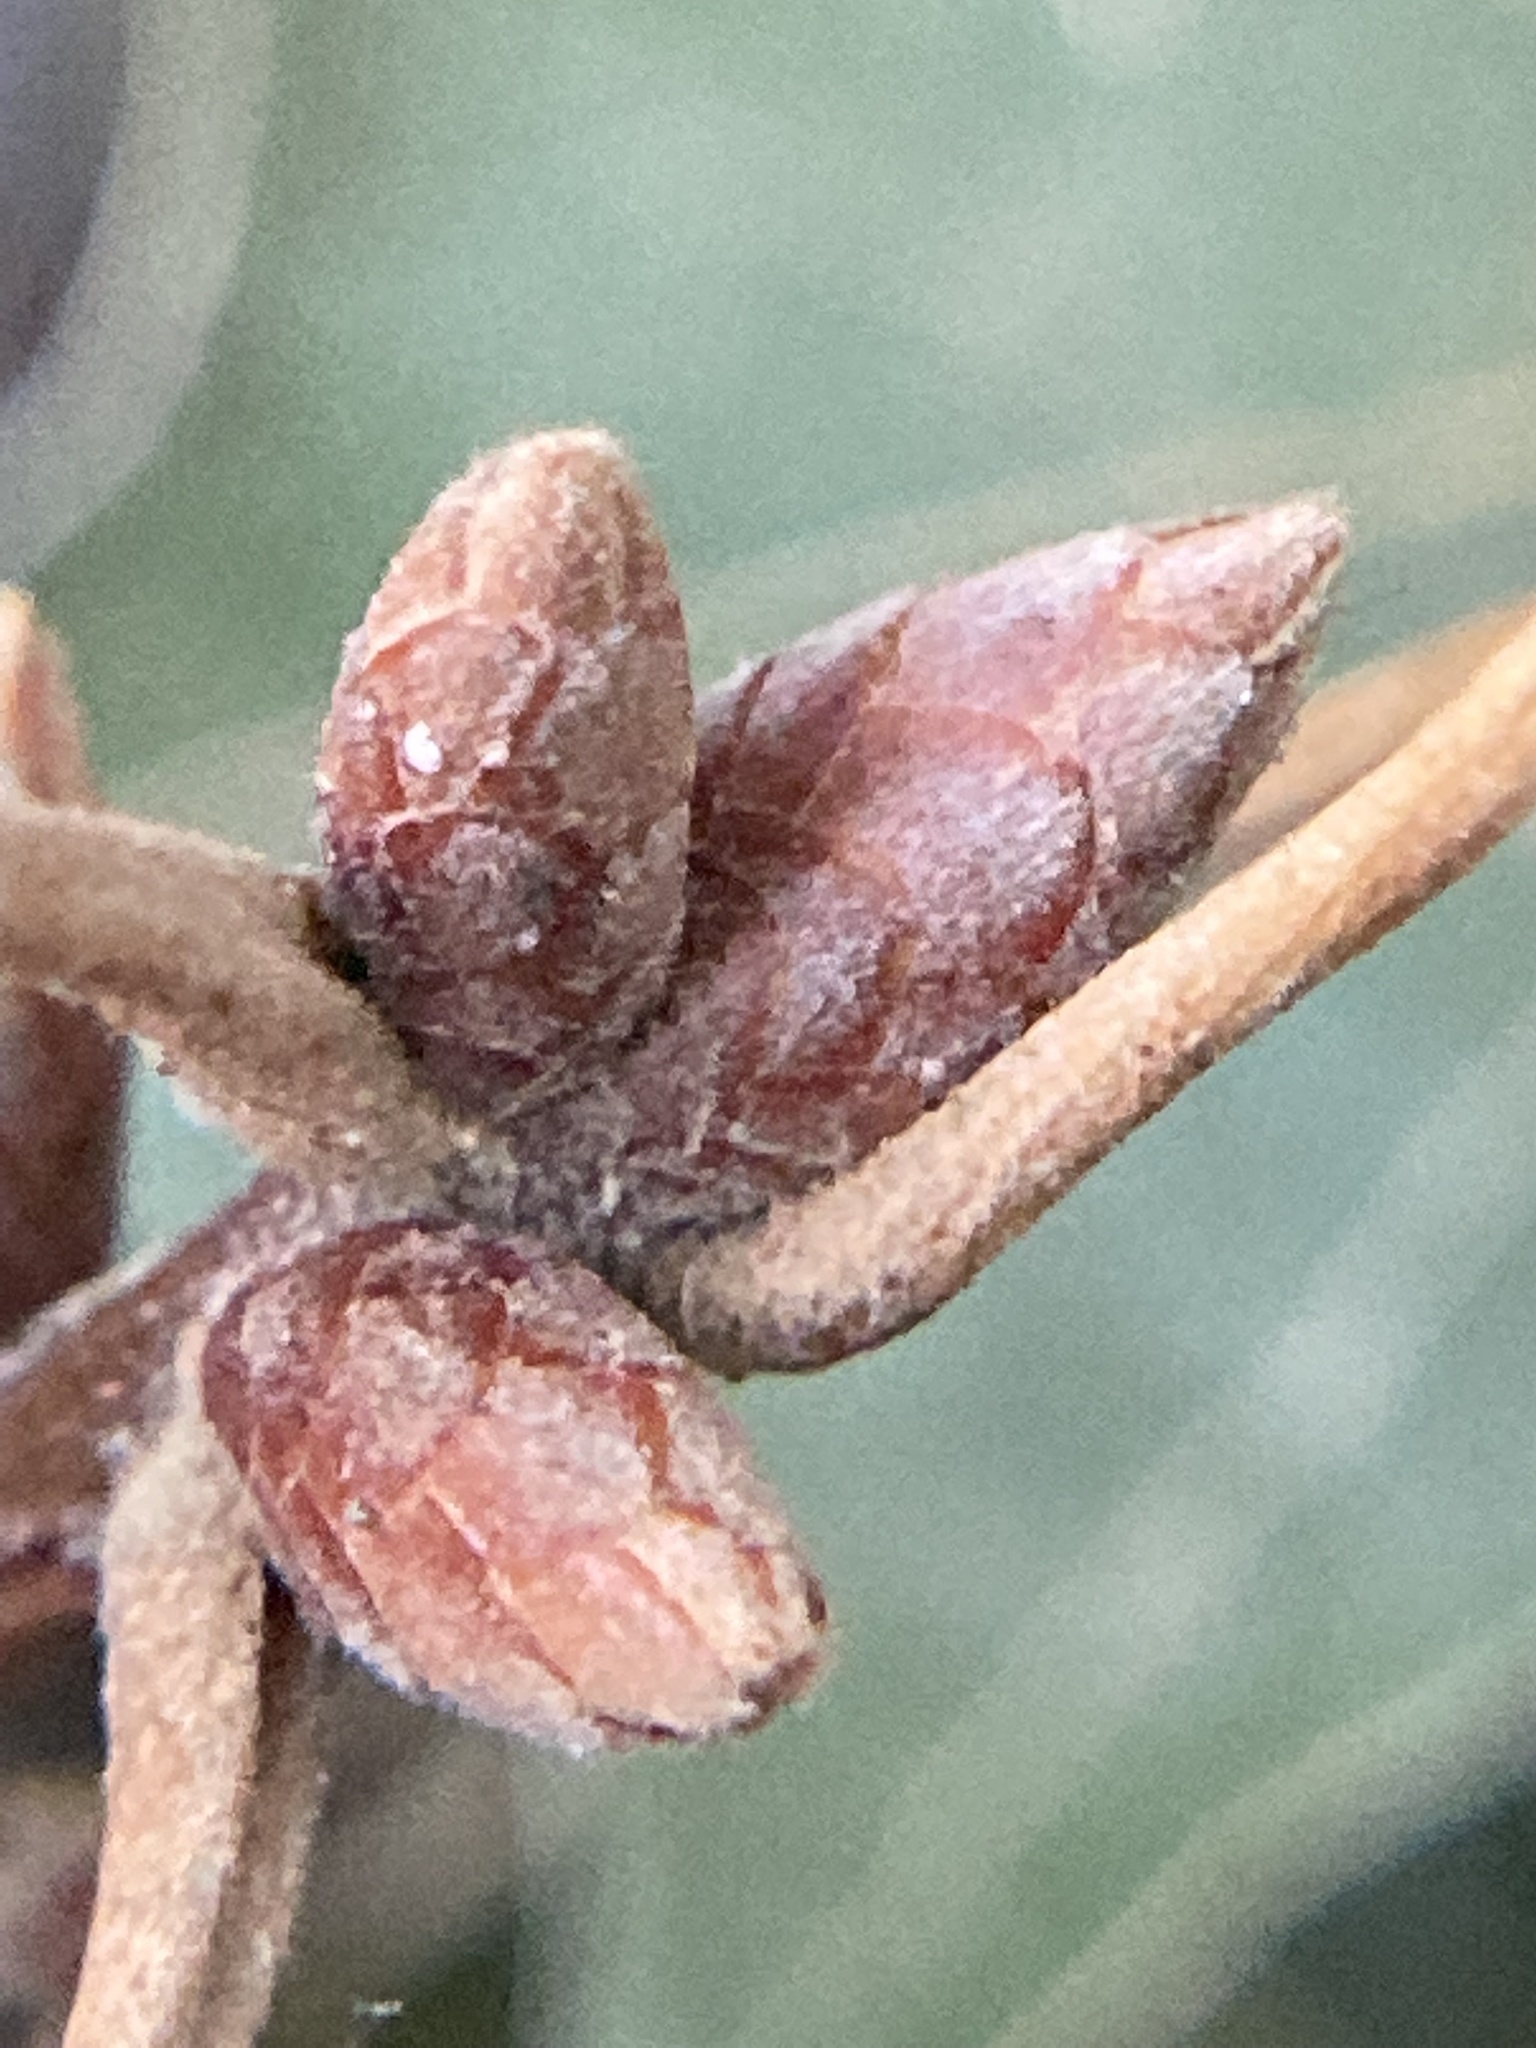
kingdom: Plantae
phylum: Tracheophyta
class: Magnoliopsida
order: Fagales
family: Fagaceae
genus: Quercus
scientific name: Quercus falcata
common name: Southern red oak
